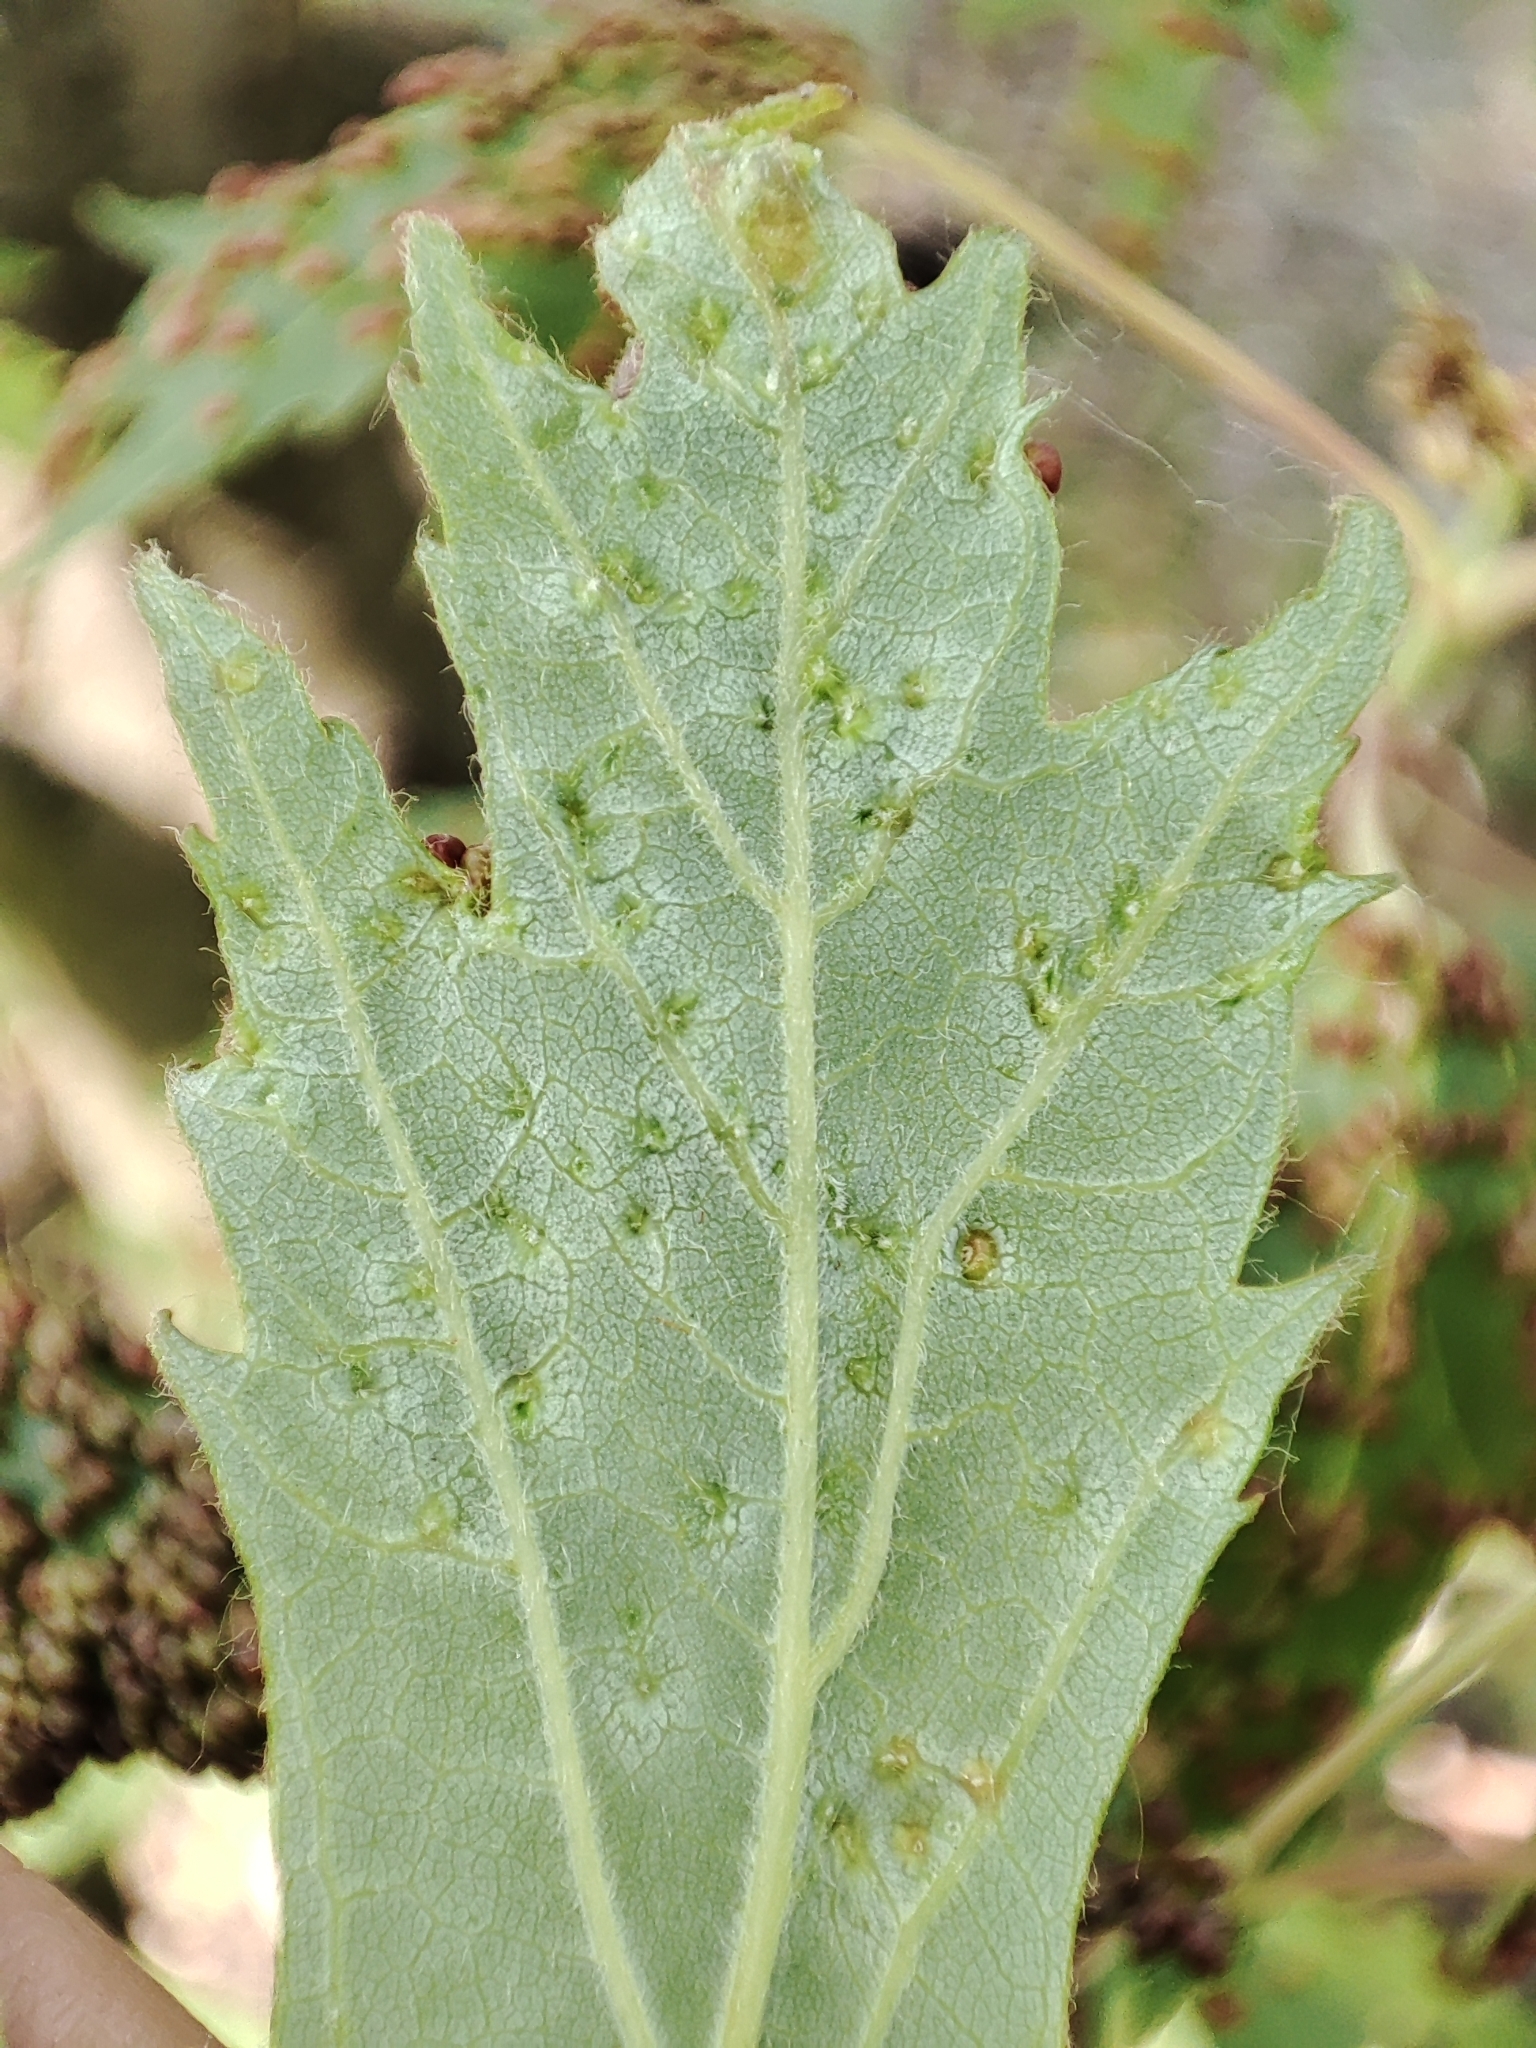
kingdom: Animalia
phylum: Arthropoda
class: Arachnida
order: Trombidiformes
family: Eriophyidae
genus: Vasates
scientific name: Vasates quadripedes
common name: Maple bladder gall mite
